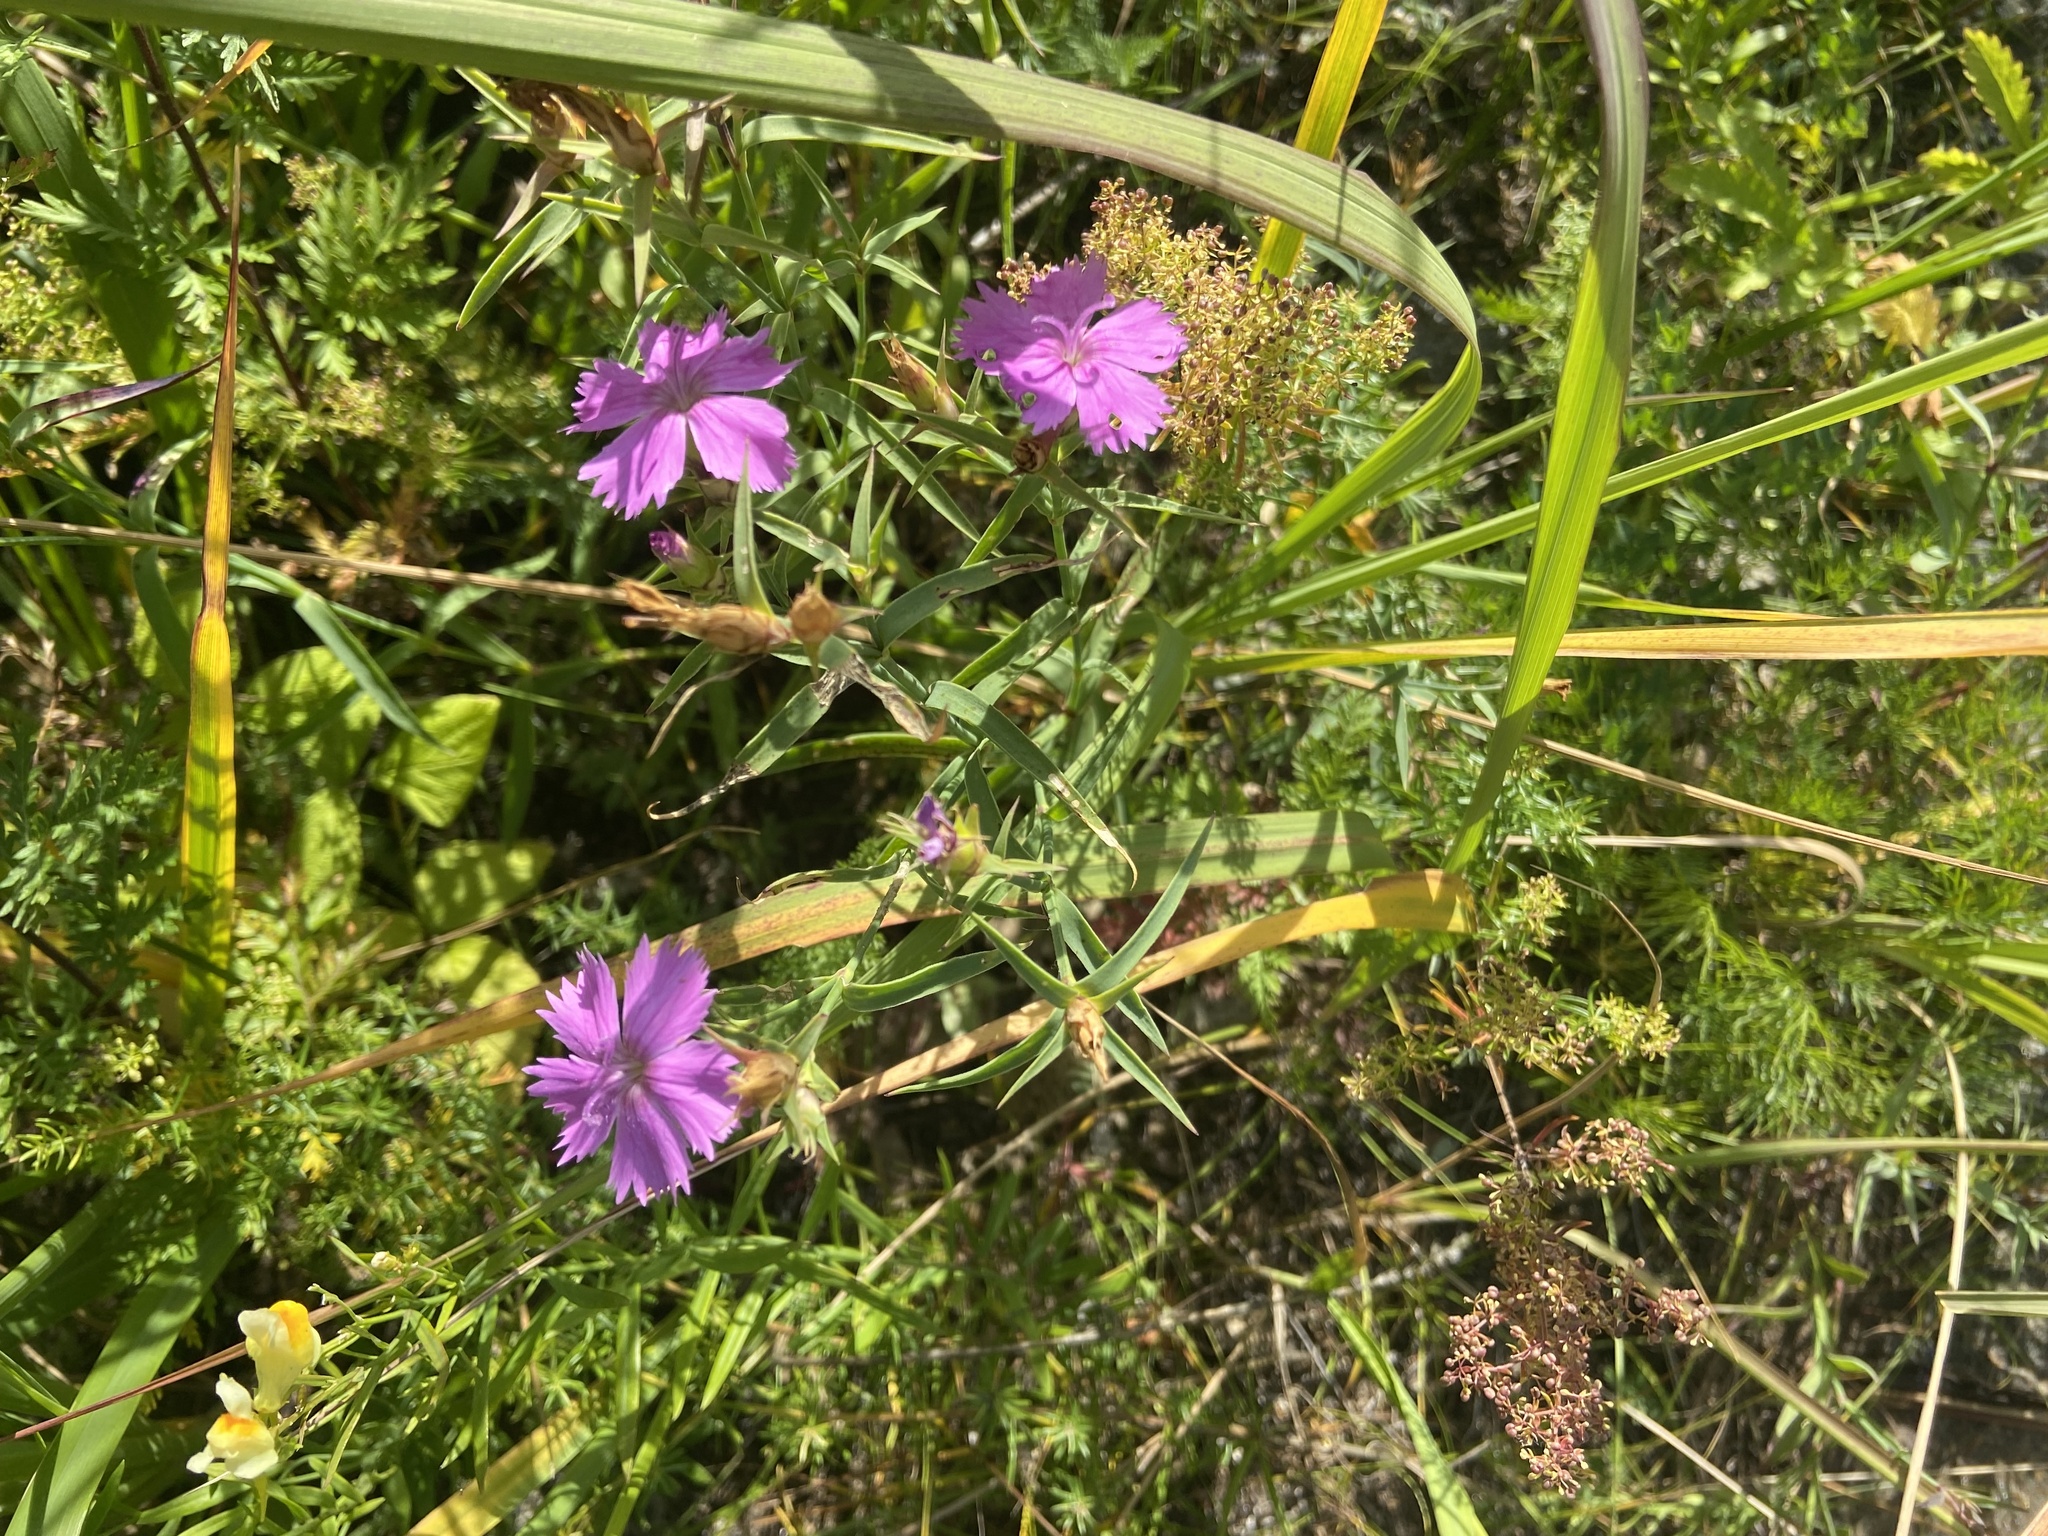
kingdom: Plantae
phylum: Tracheophyta
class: Magnoliopsida
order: Caryophyllales
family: Caryophyllaceae
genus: Dianthus
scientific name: Dianthus chinensis
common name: Rainbow pink
